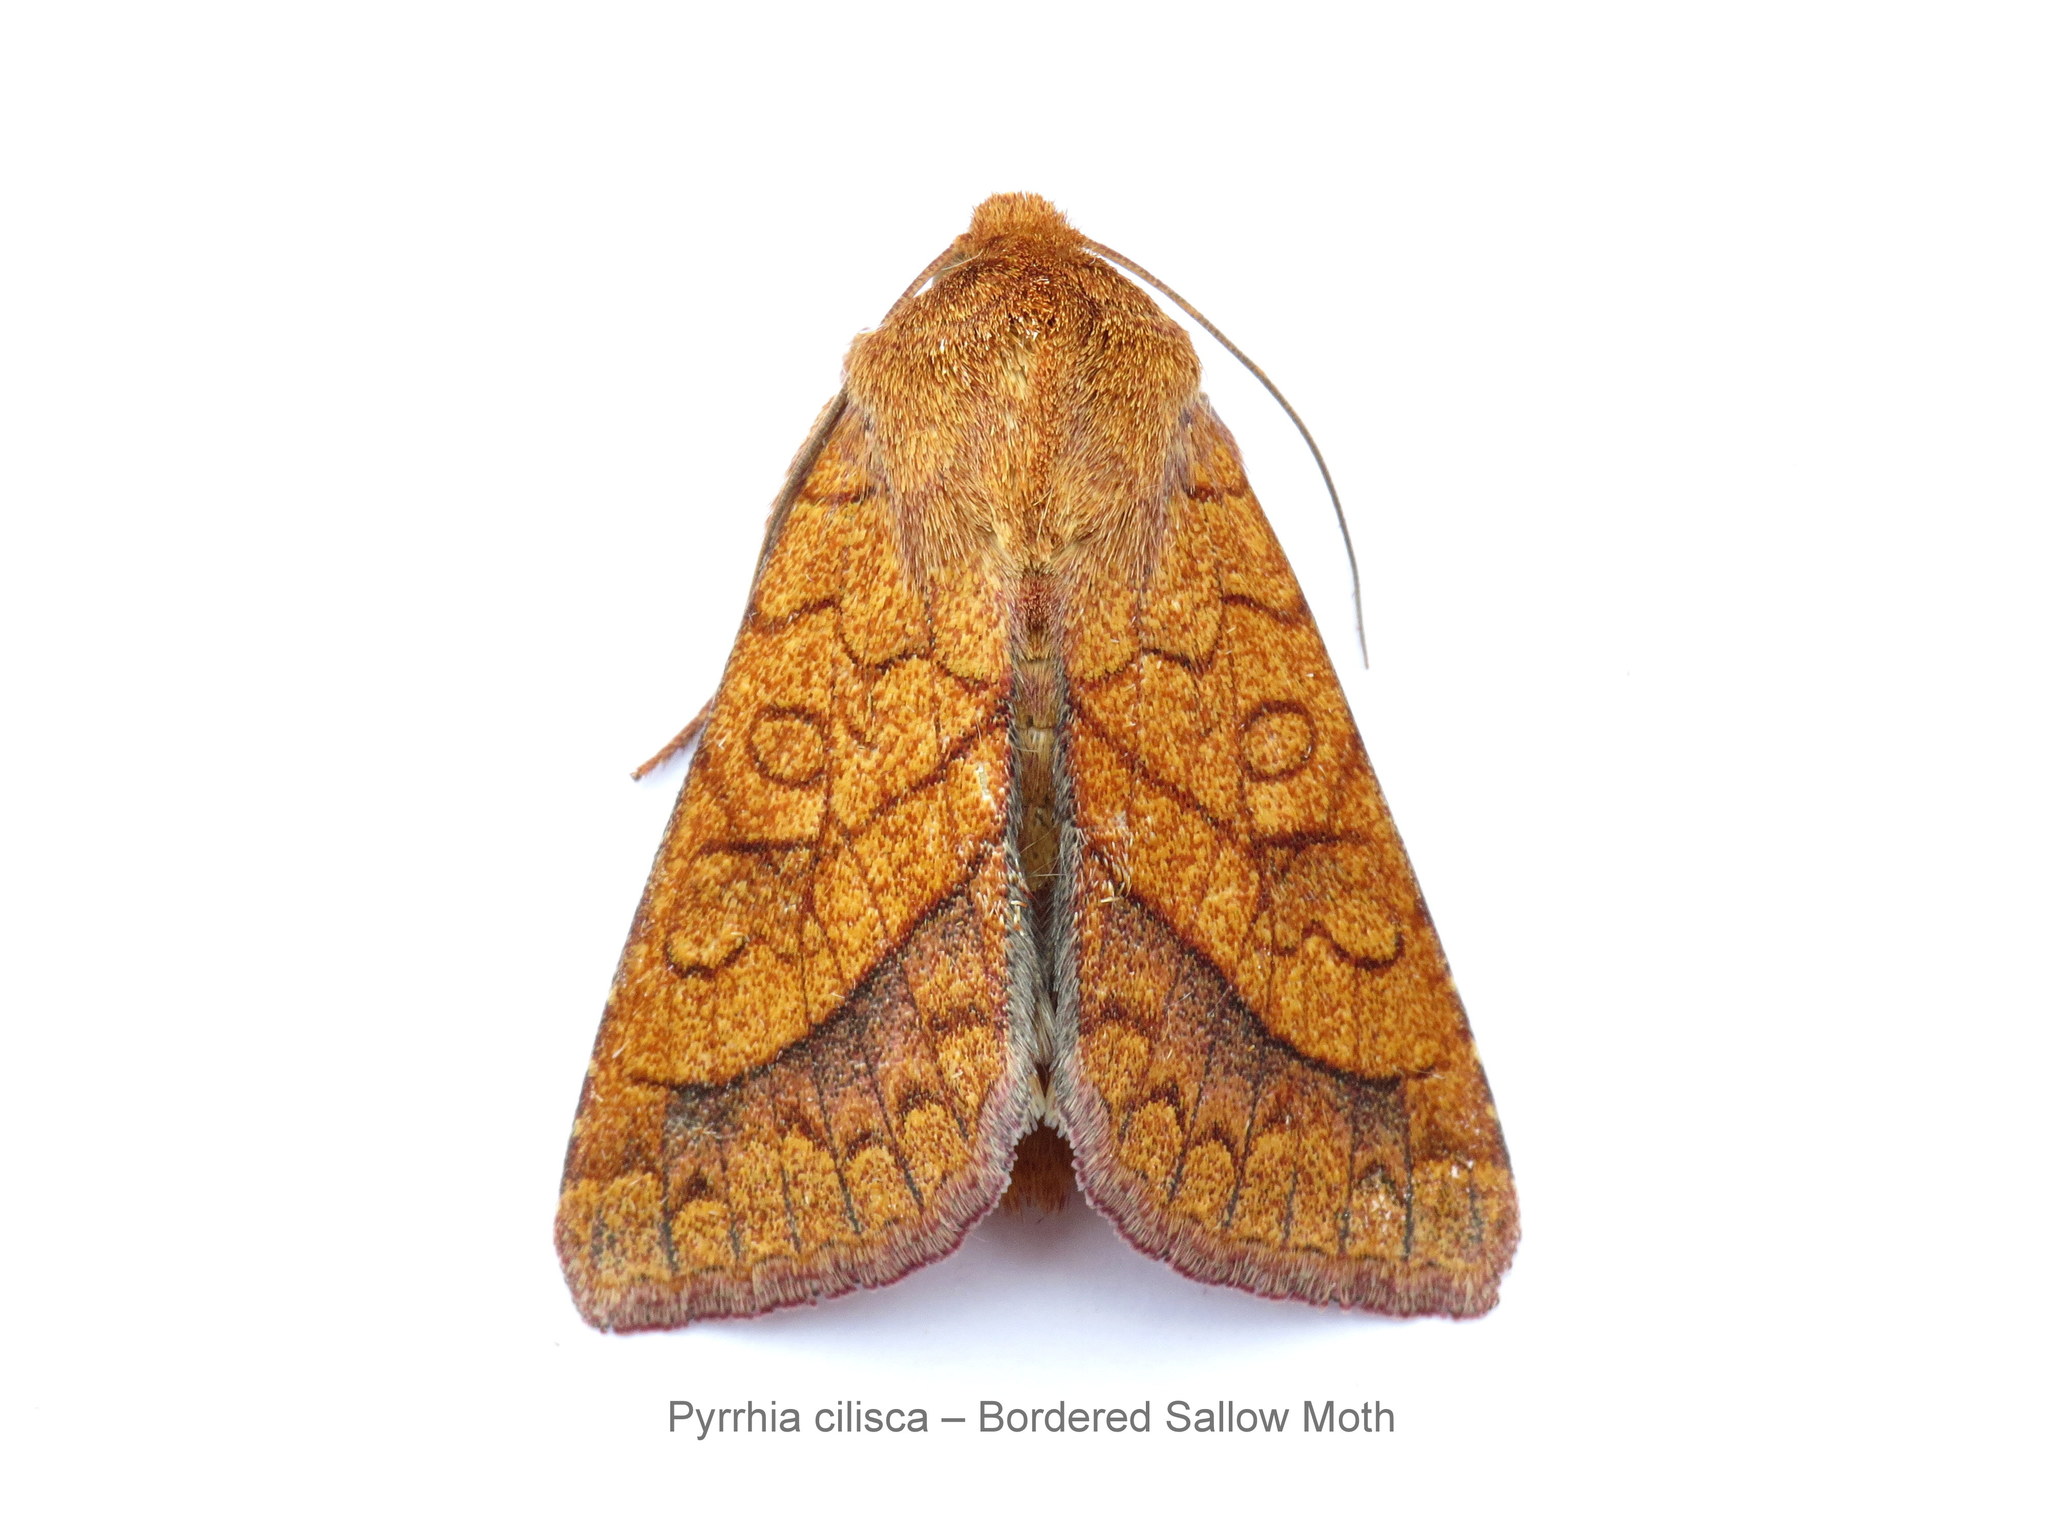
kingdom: Animalia
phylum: Arthropoda
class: Insecta
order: Lepidoptera
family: Noctuidae
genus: Pyrrhia
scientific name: Pyrrhia cilisca
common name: Bordered sallow moth
